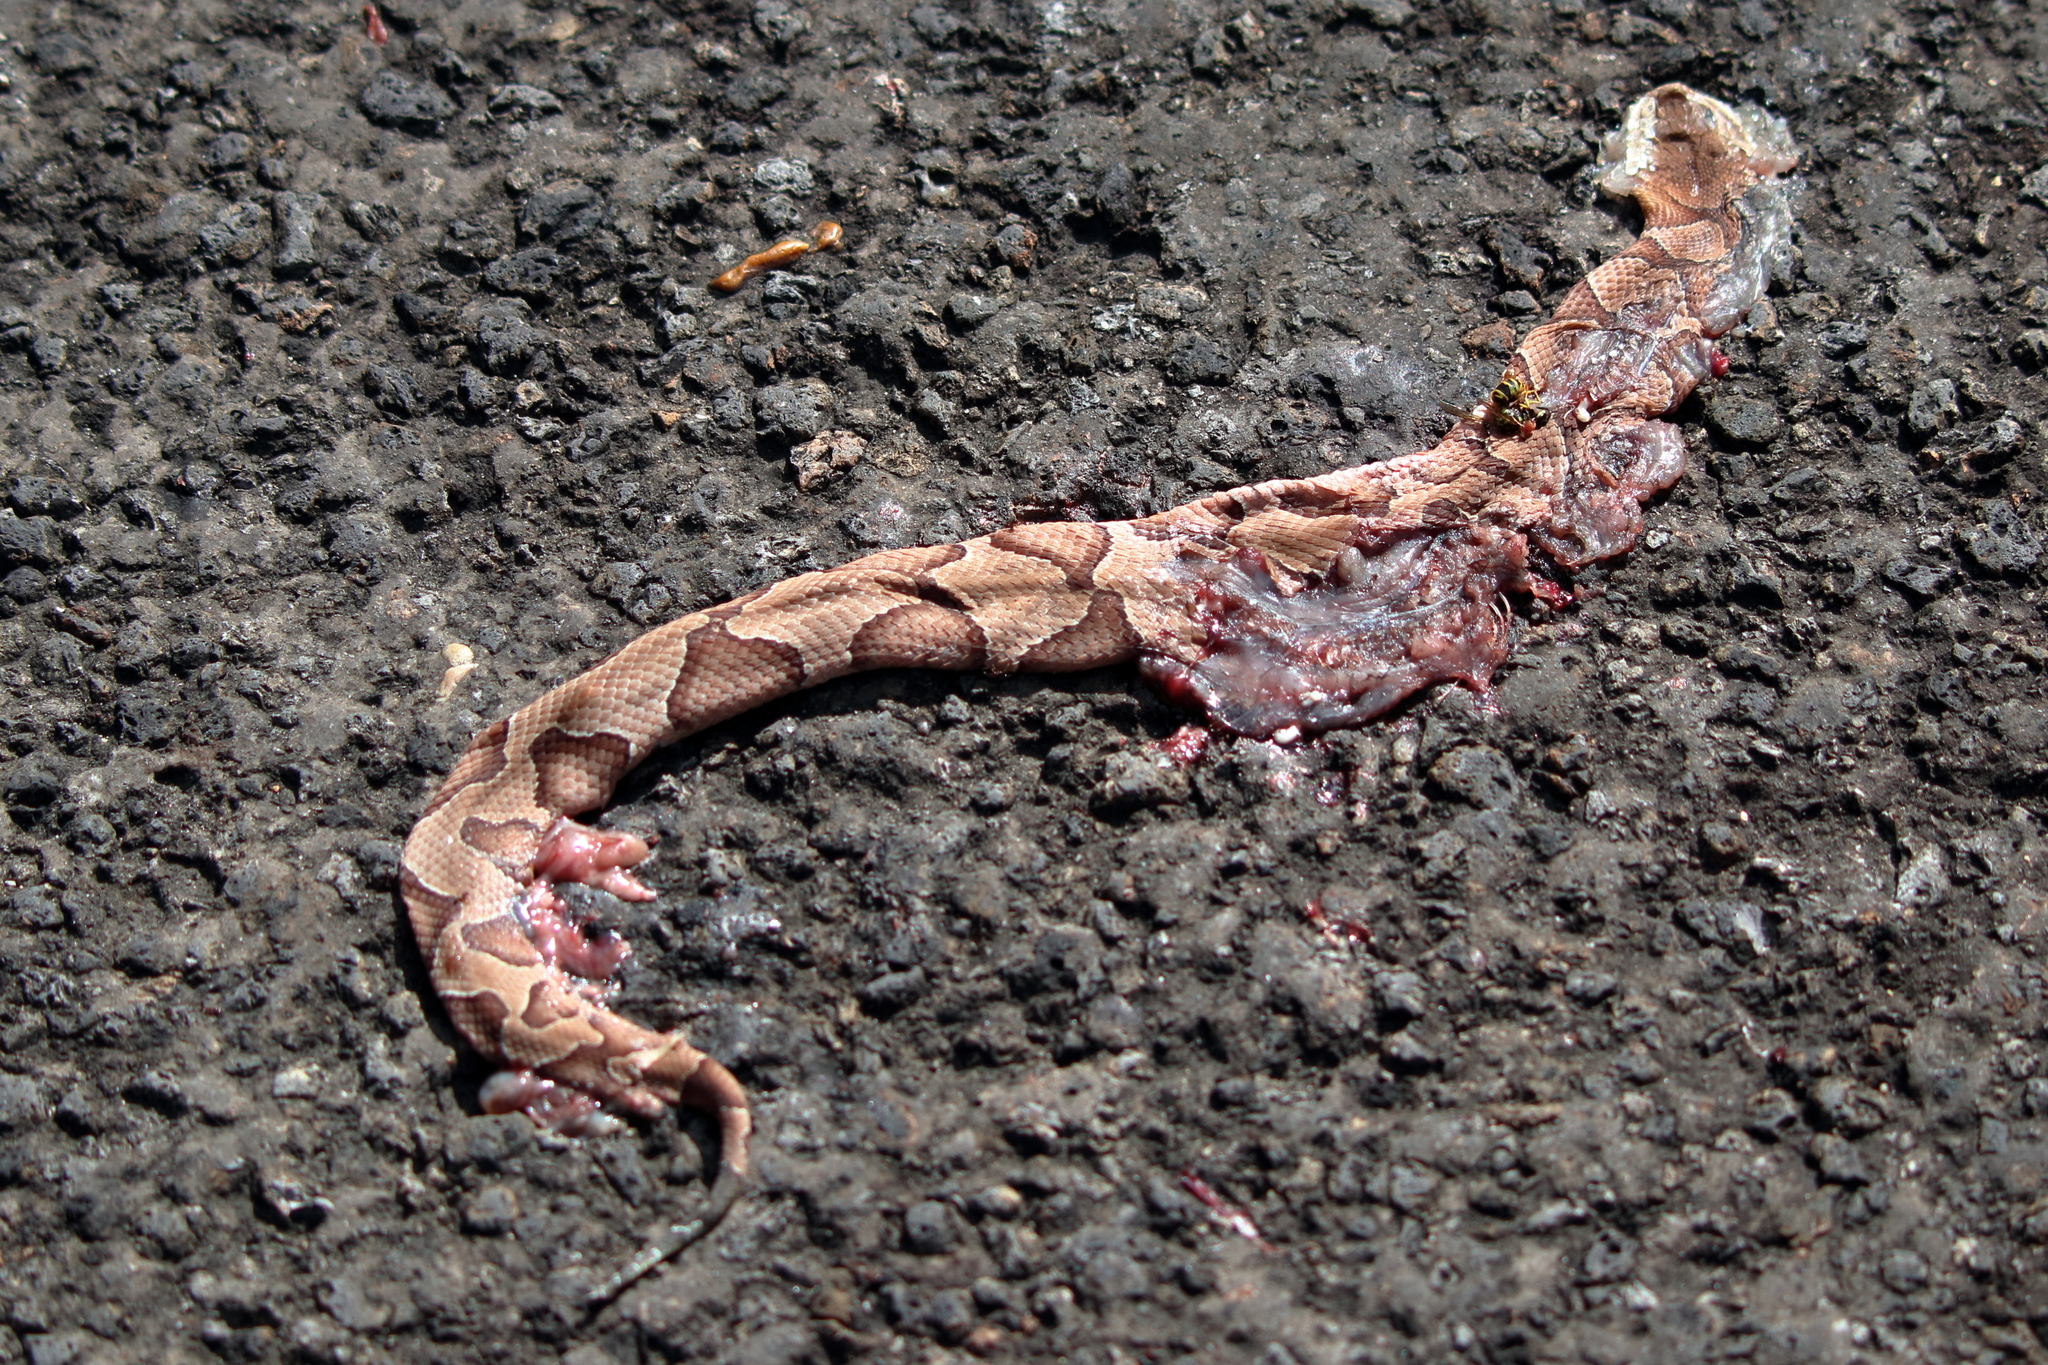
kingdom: Animalia
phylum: Chordata
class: Squamata
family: Viperidae
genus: Agkistrodon
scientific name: Agkistrodon contortrix
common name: Northern copperhead
